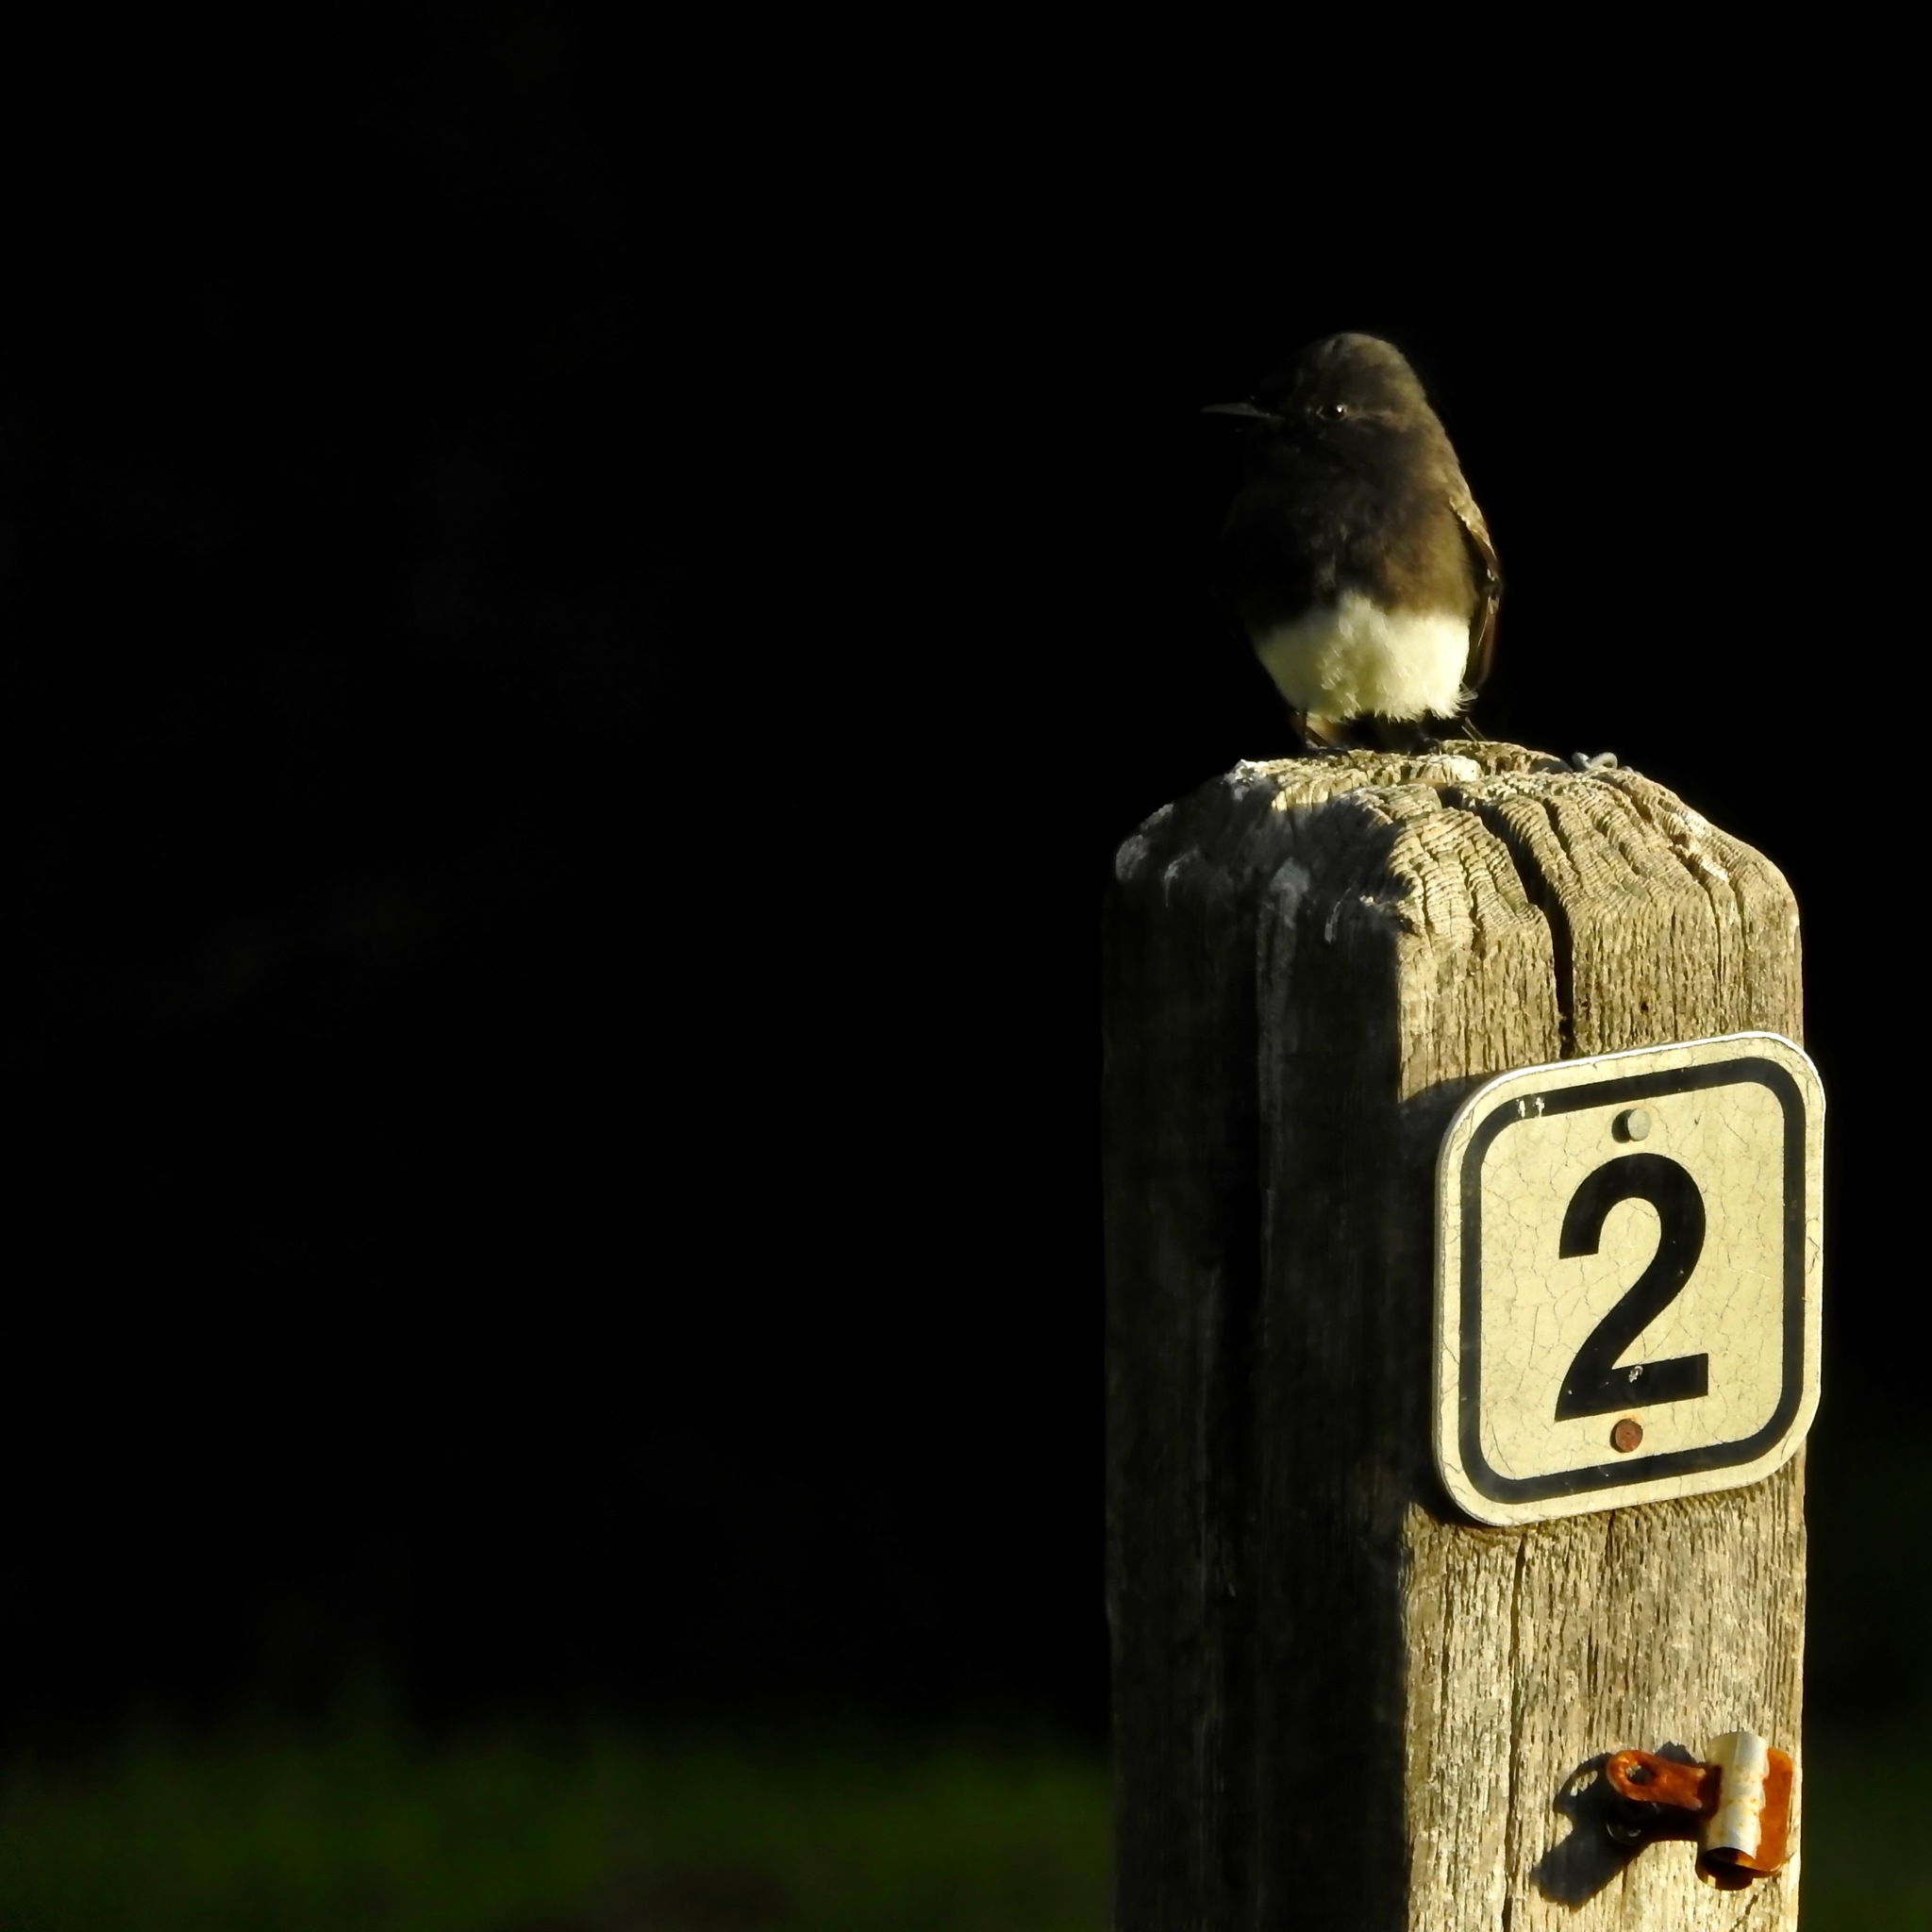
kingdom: Animalia
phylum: Chordata
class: Aves
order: Passeriformes
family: Tyrannidae
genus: Sayornis
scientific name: Sayornis nigricans
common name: Black phoebe
